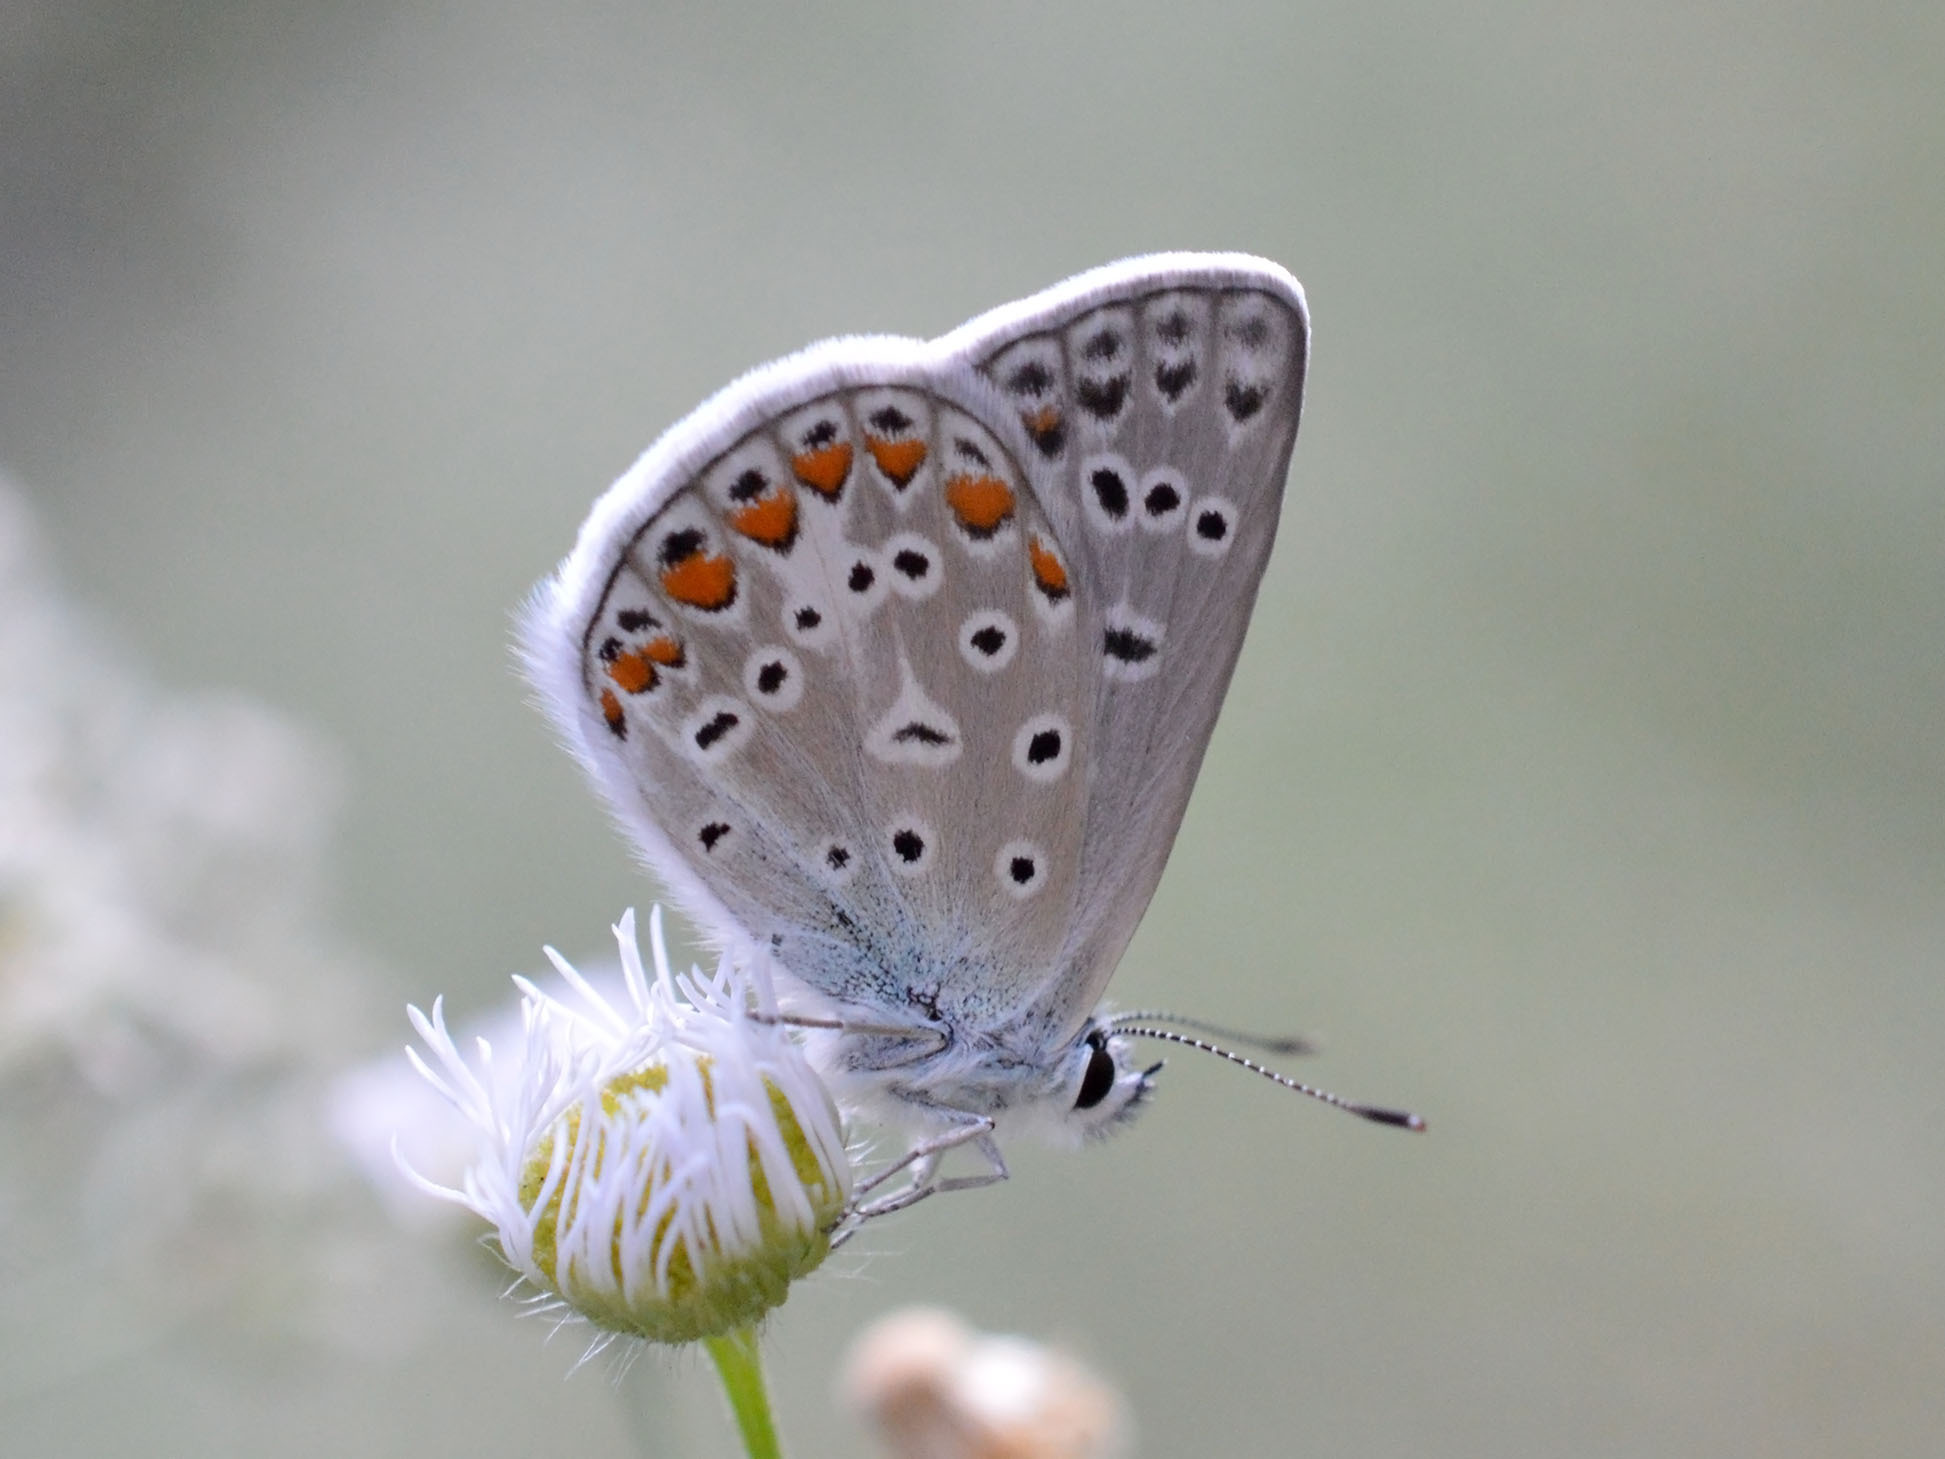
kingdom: Animalia
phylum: Arthropoda
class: Insecta
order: Lepidoptera
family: Lycaenidae
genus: Polyommatus
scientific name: Polyommatus icarus
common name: Common blue
